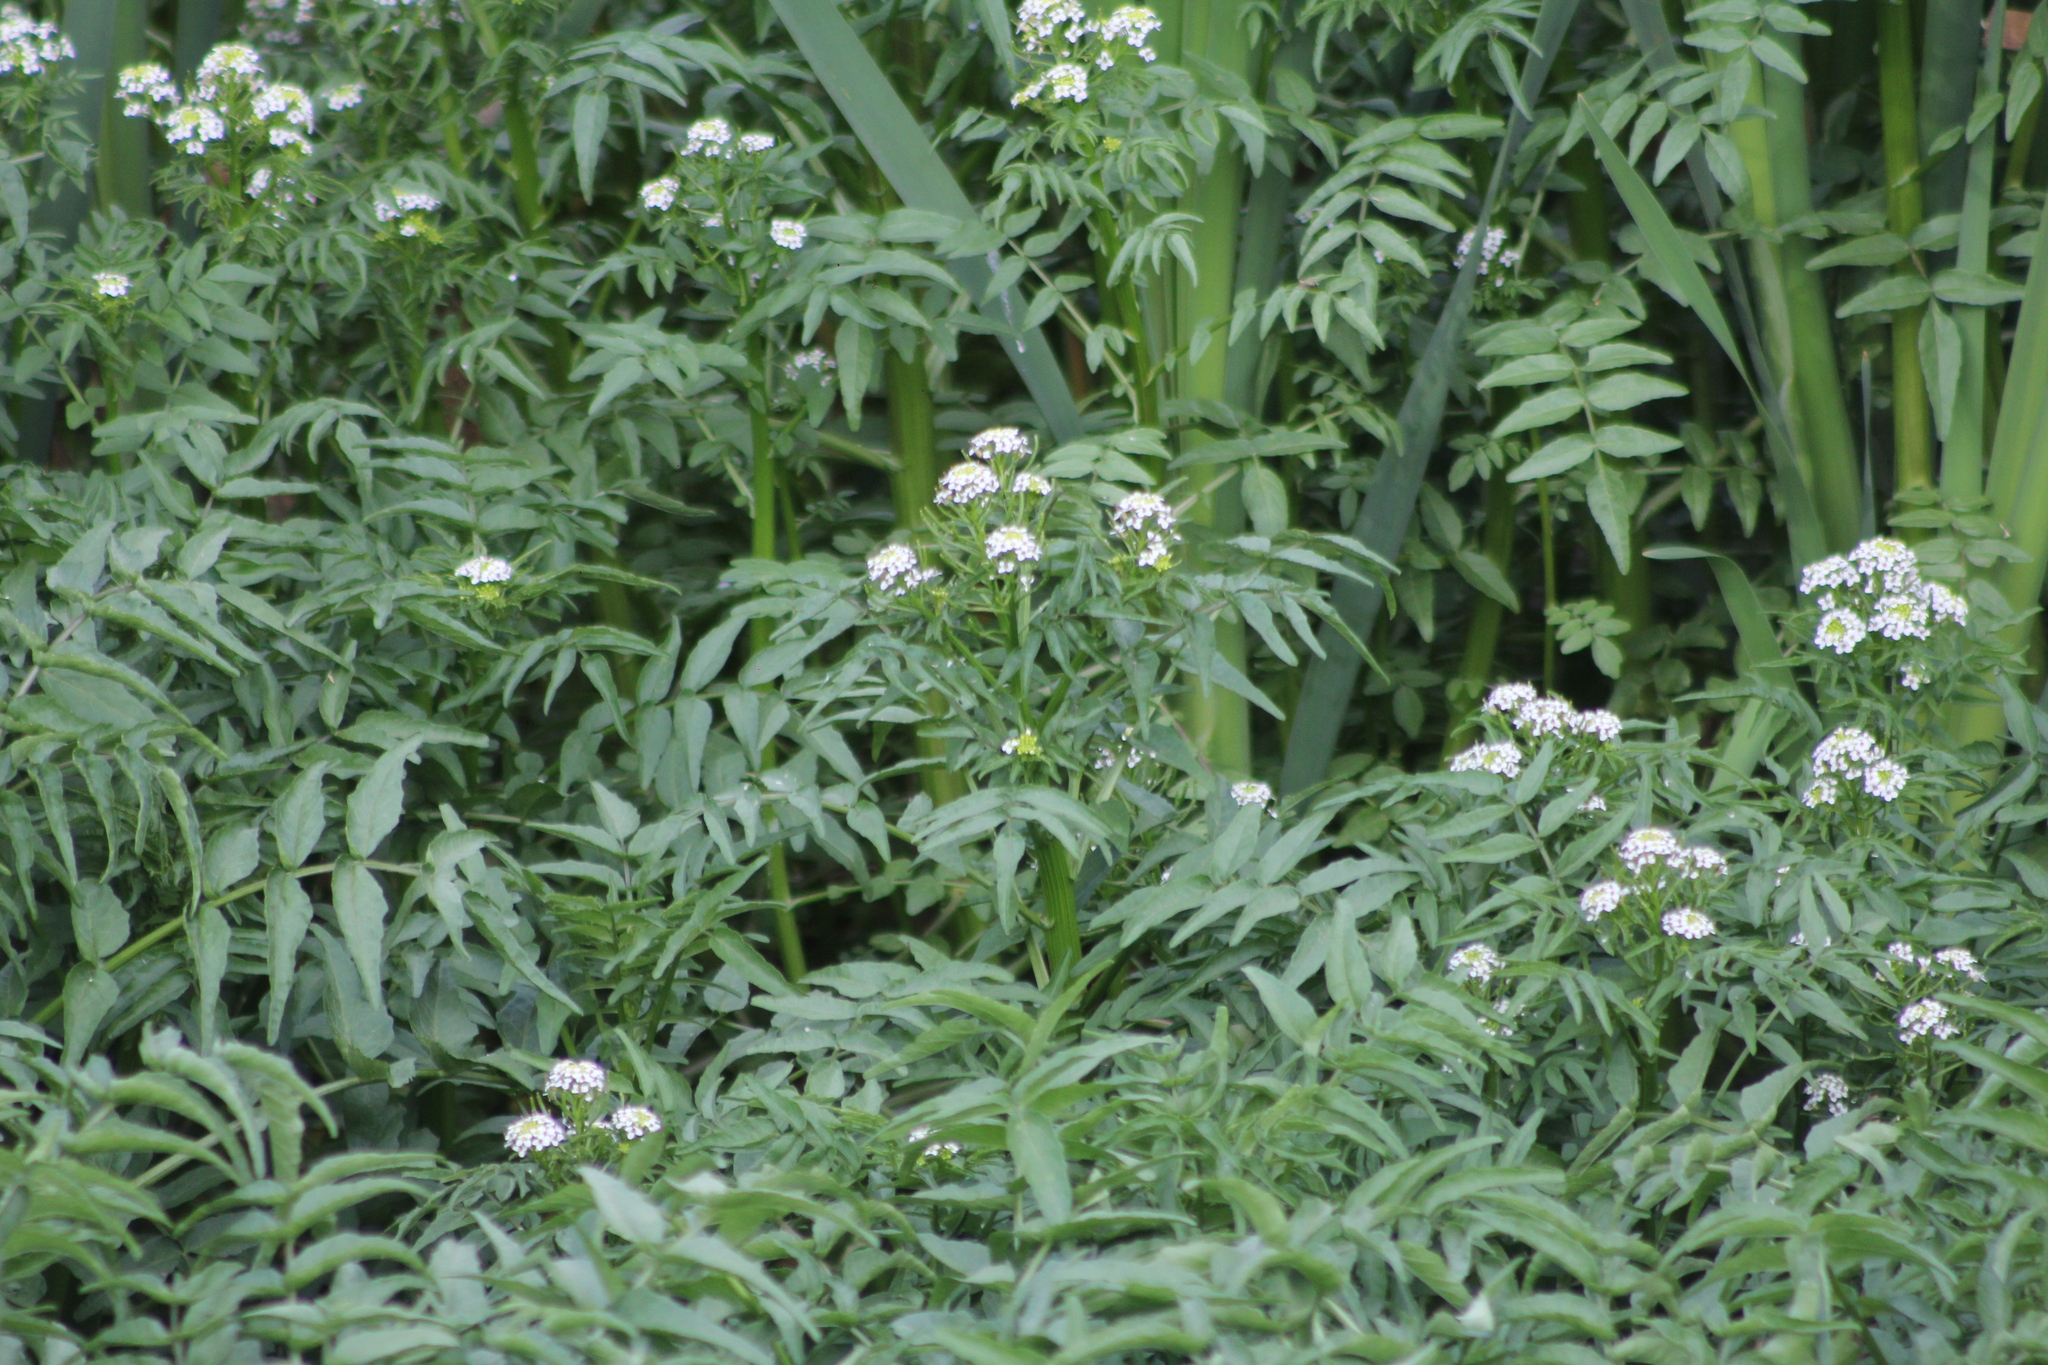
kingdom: Plantae
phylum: Tracheophyta
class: Magnoliopsida
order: Brassicales
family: Brassicaceae
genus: Nasturtium
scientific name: Nasturtium officinale
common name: Watercress
